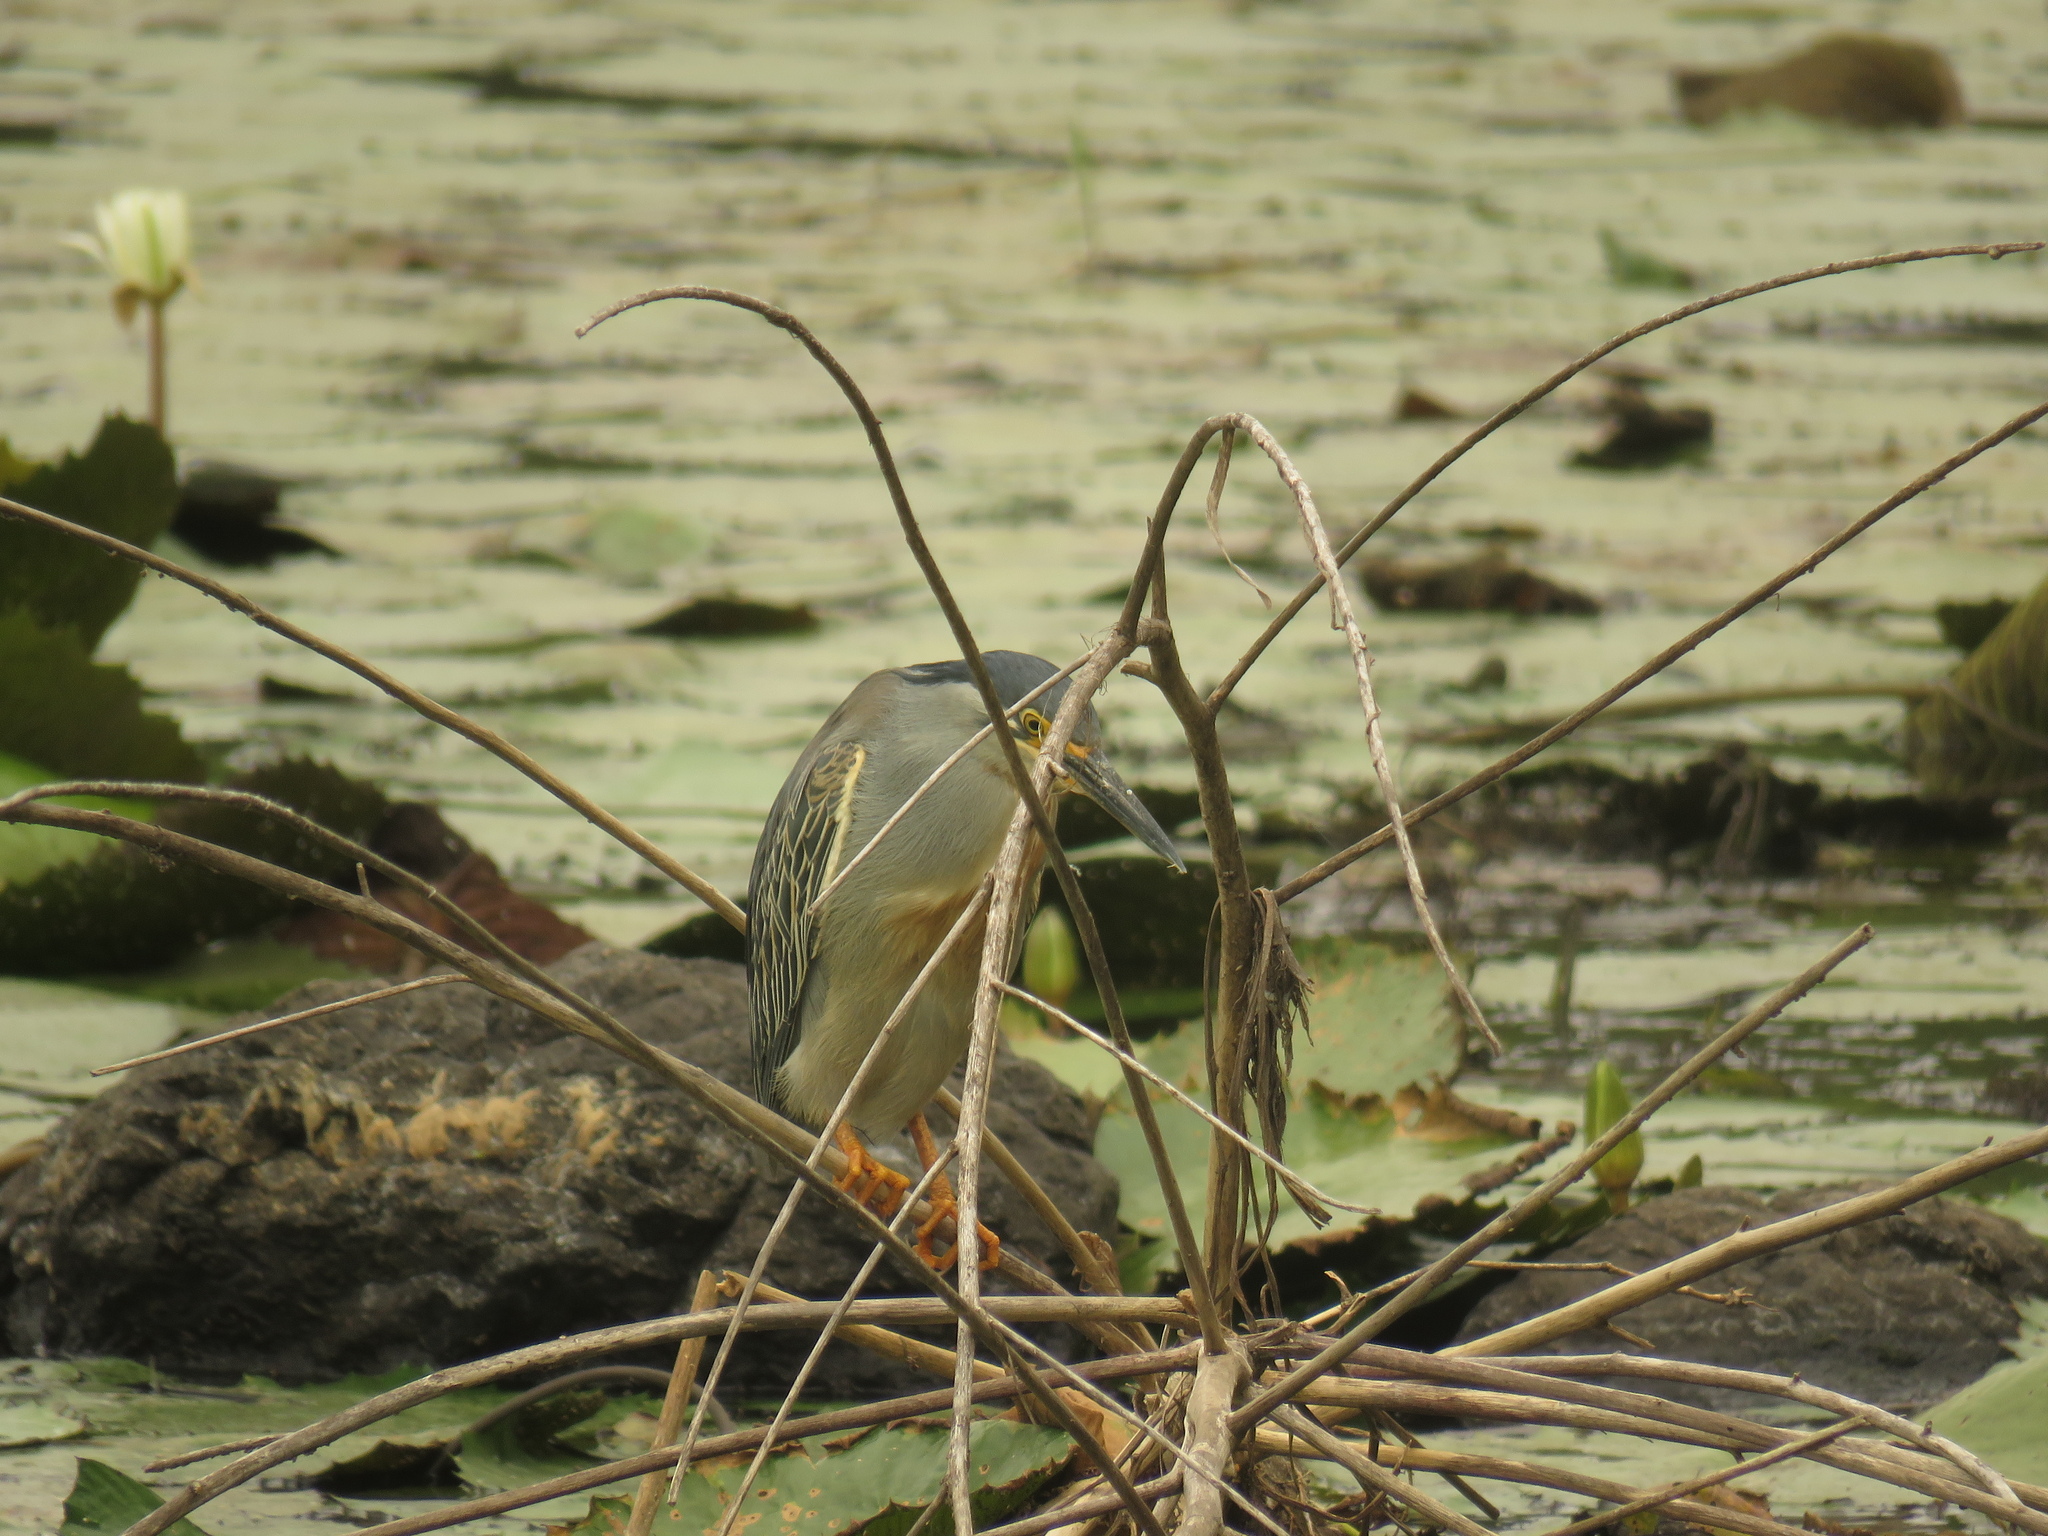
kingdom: Animalia
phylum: Chordata
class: Aves
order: Pelecaniformes
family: Ardeidae
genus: Butorides
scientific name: Butorides striata
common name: Striated heron
